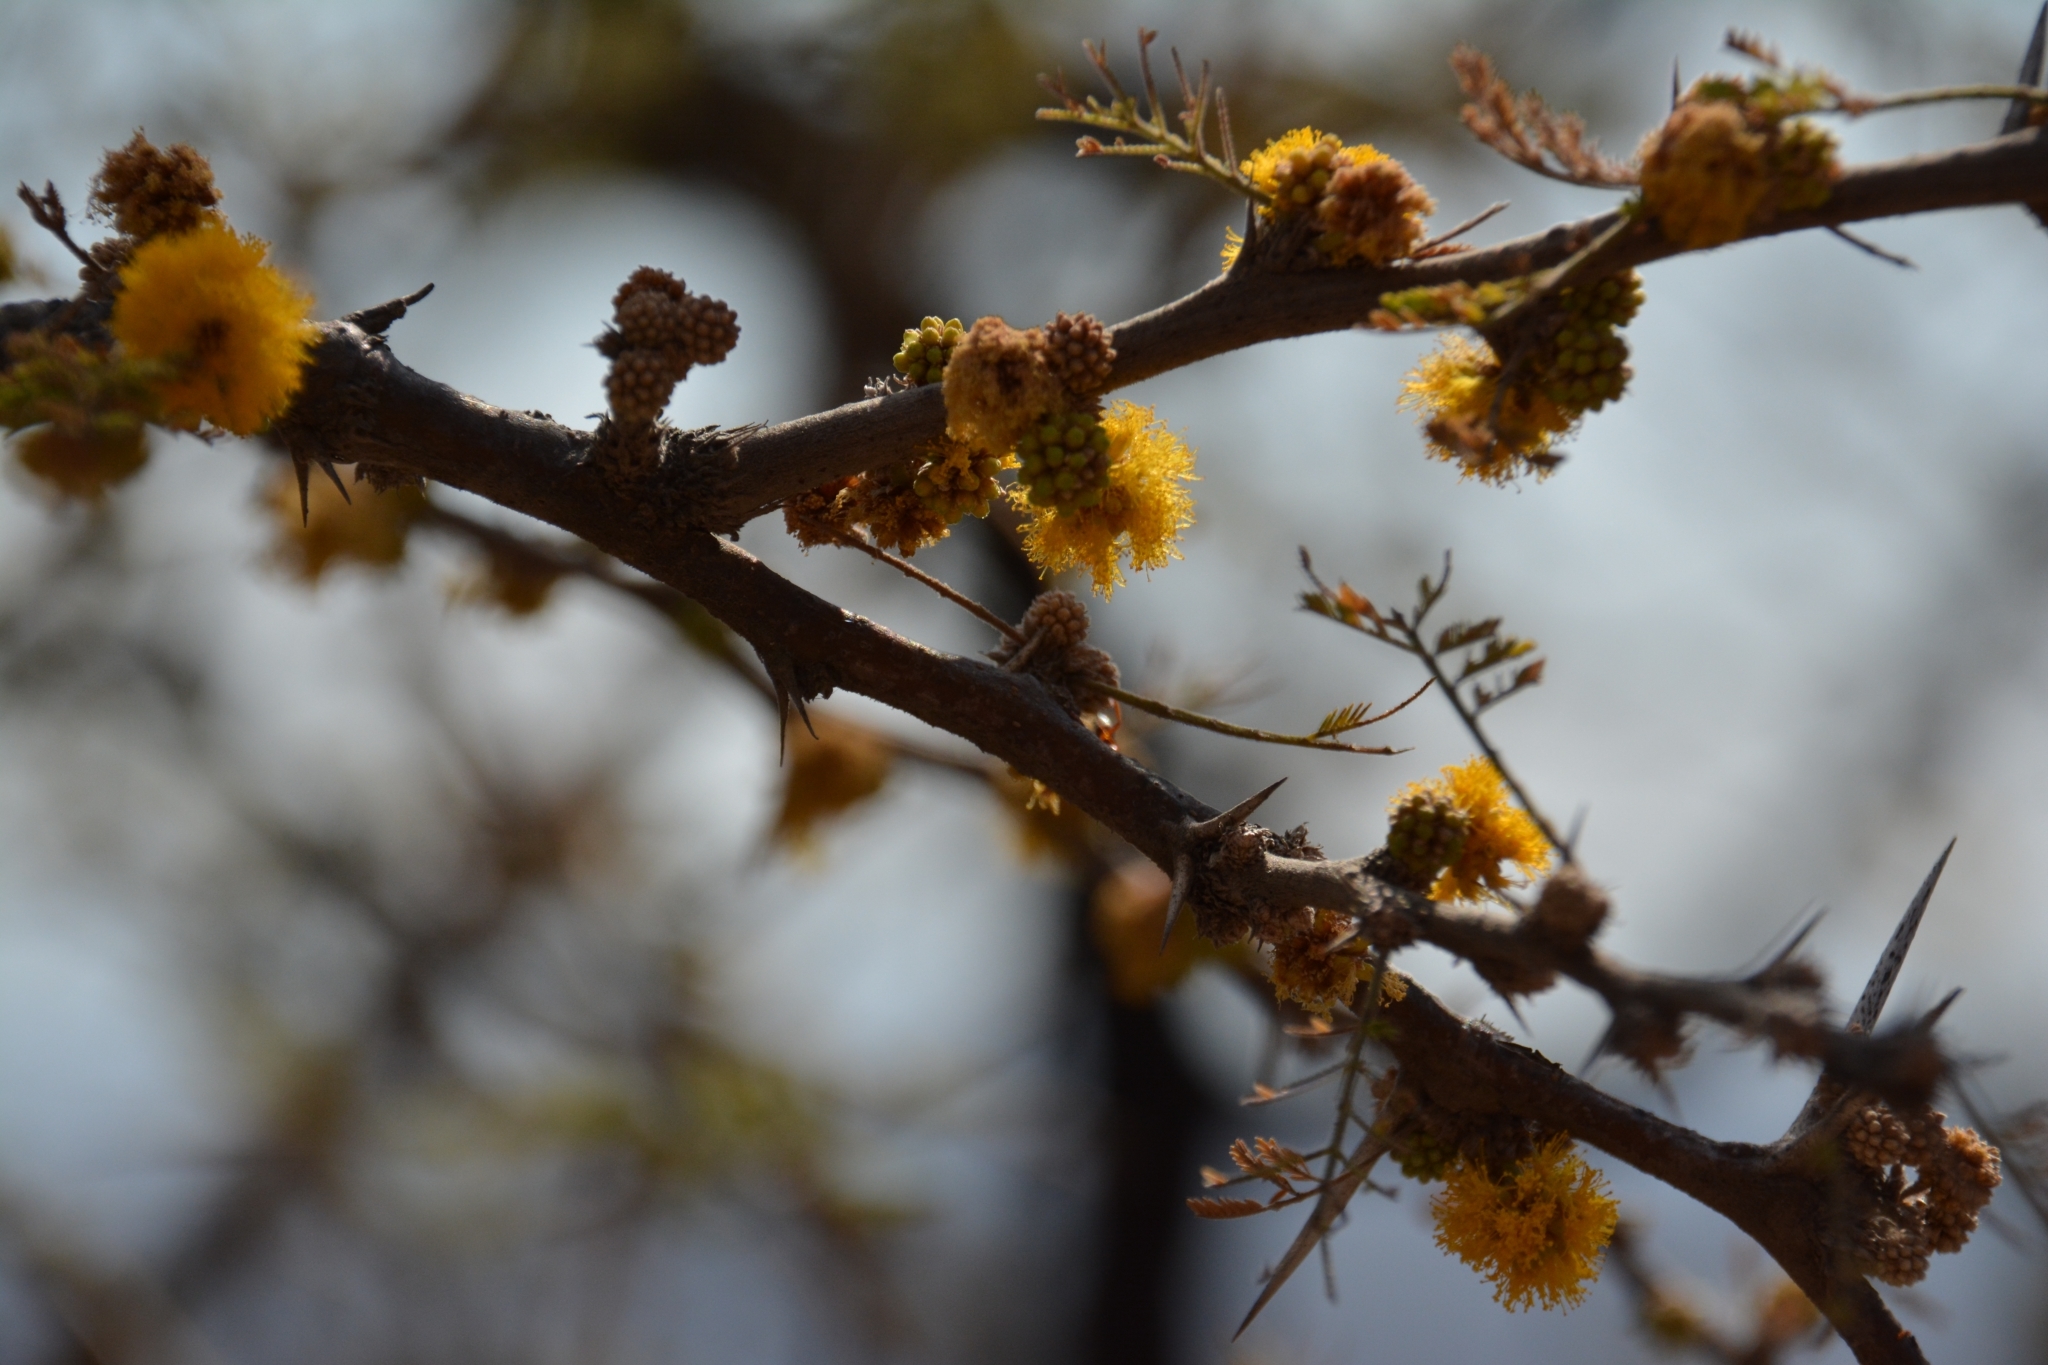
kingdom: Plantae
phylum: Tracheophyta
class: Magnoliopsida
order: Fabales
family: Fabaceae
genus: Vachellia
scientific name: Vachellia caven
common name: Roman cassie
